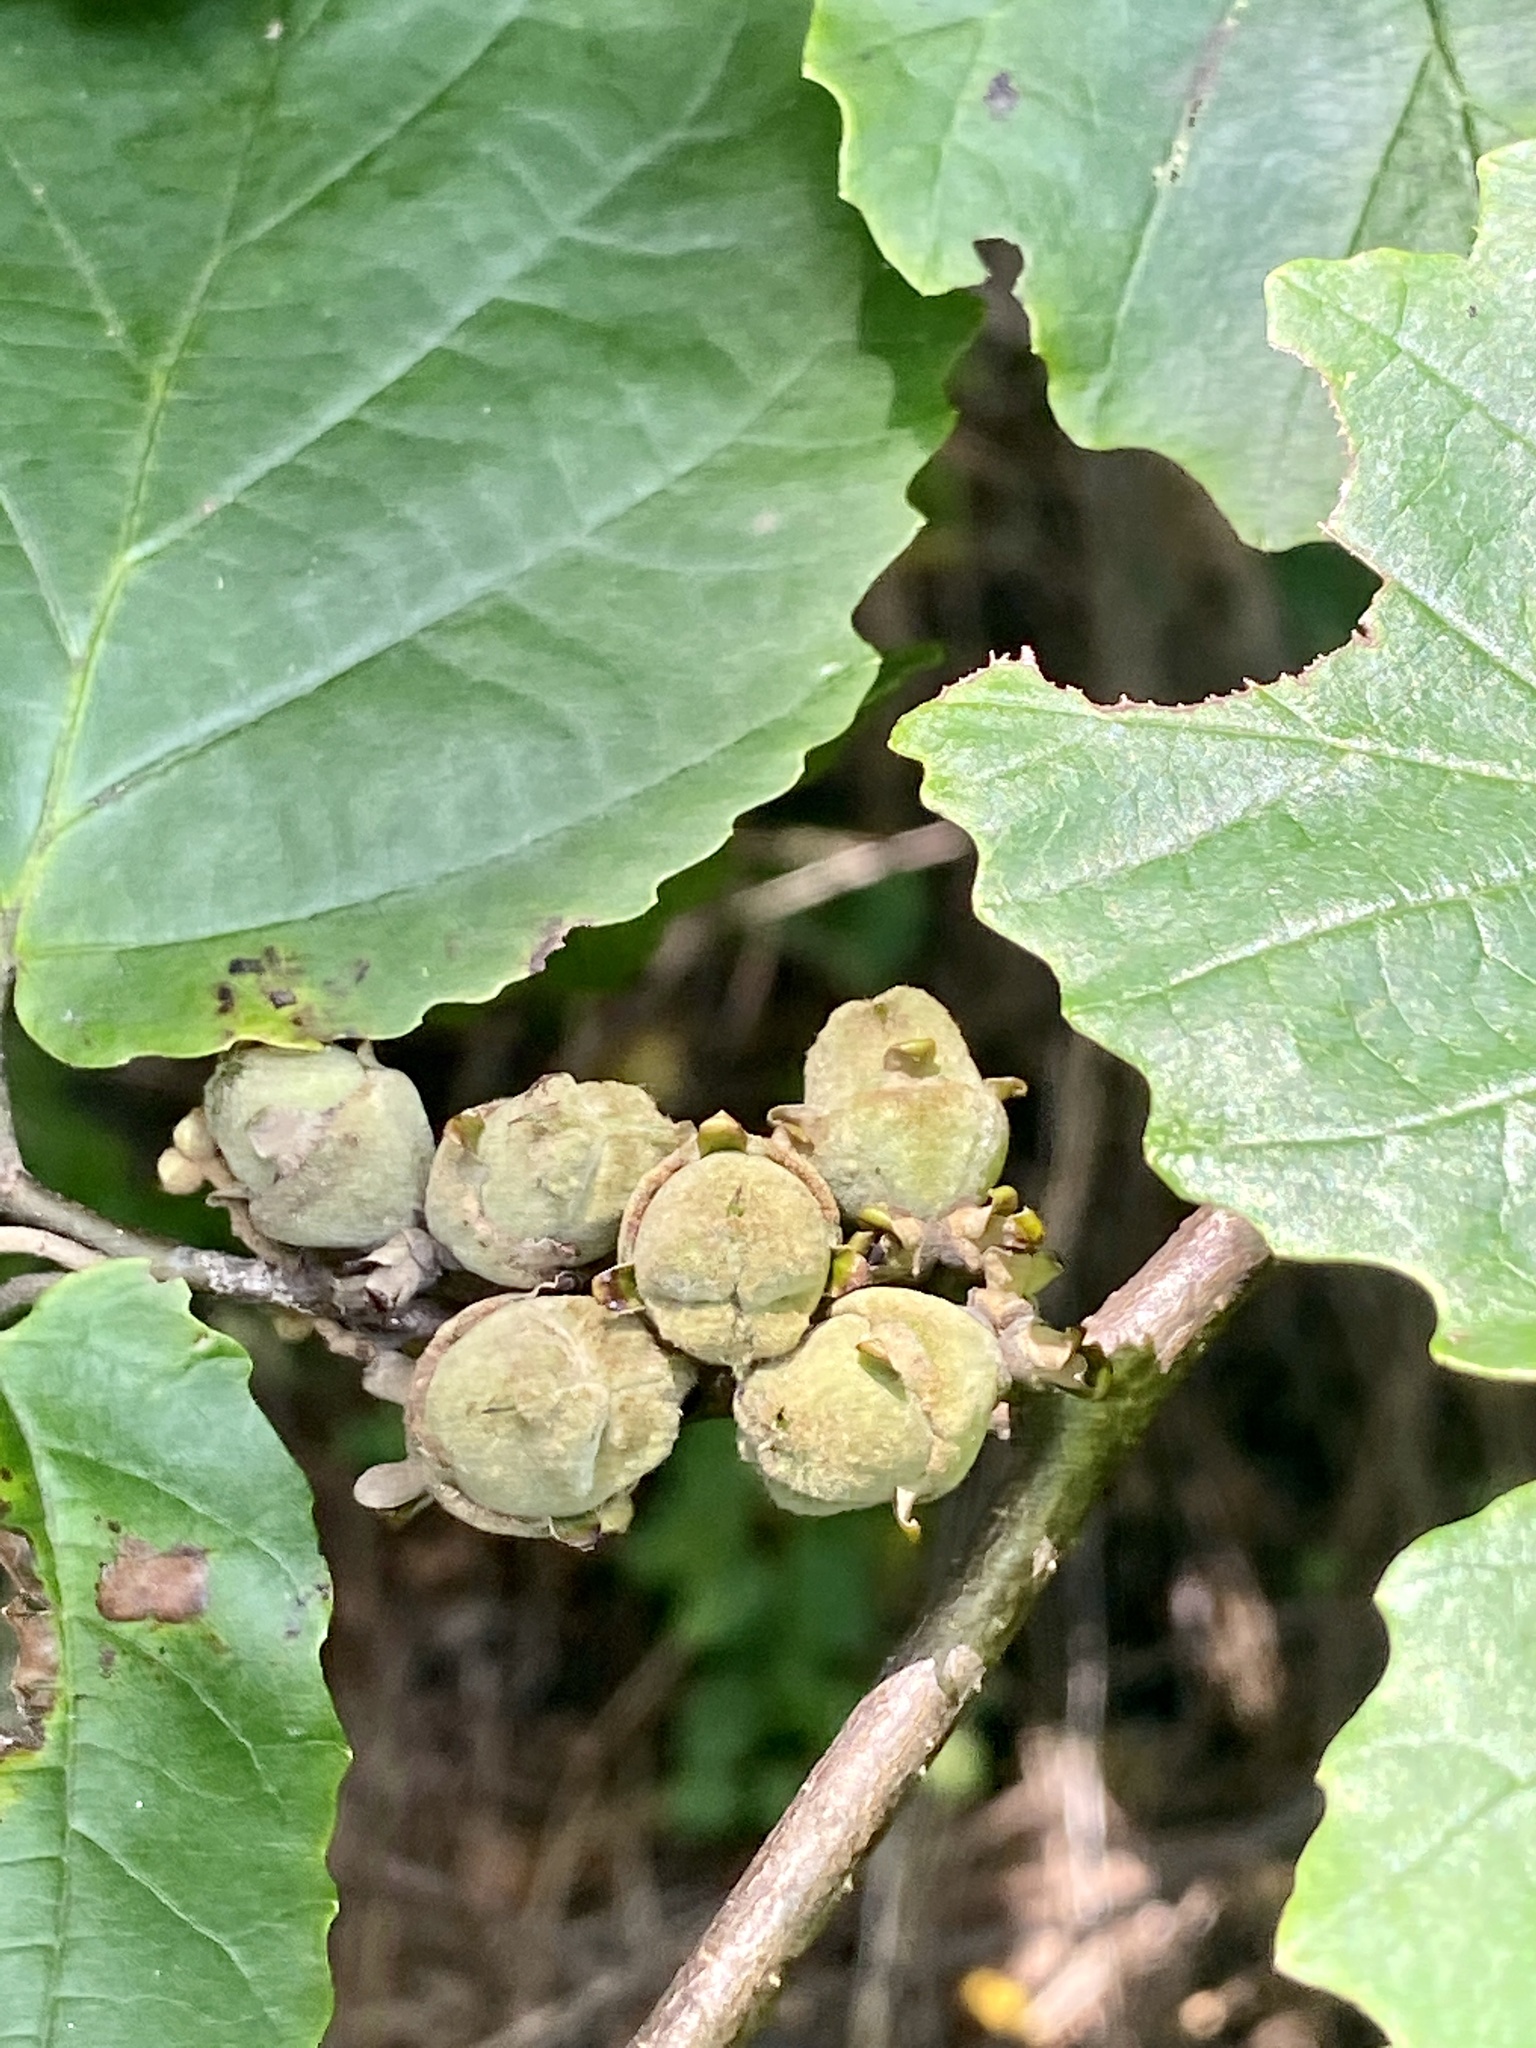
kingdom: Plantae
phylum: Tracheophyta
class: Magnoliopsida
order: Saxifragales
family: Hamamelidaceae
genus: Hamamelis
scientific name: Hamamelis virginiana
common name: Witch-hazel
